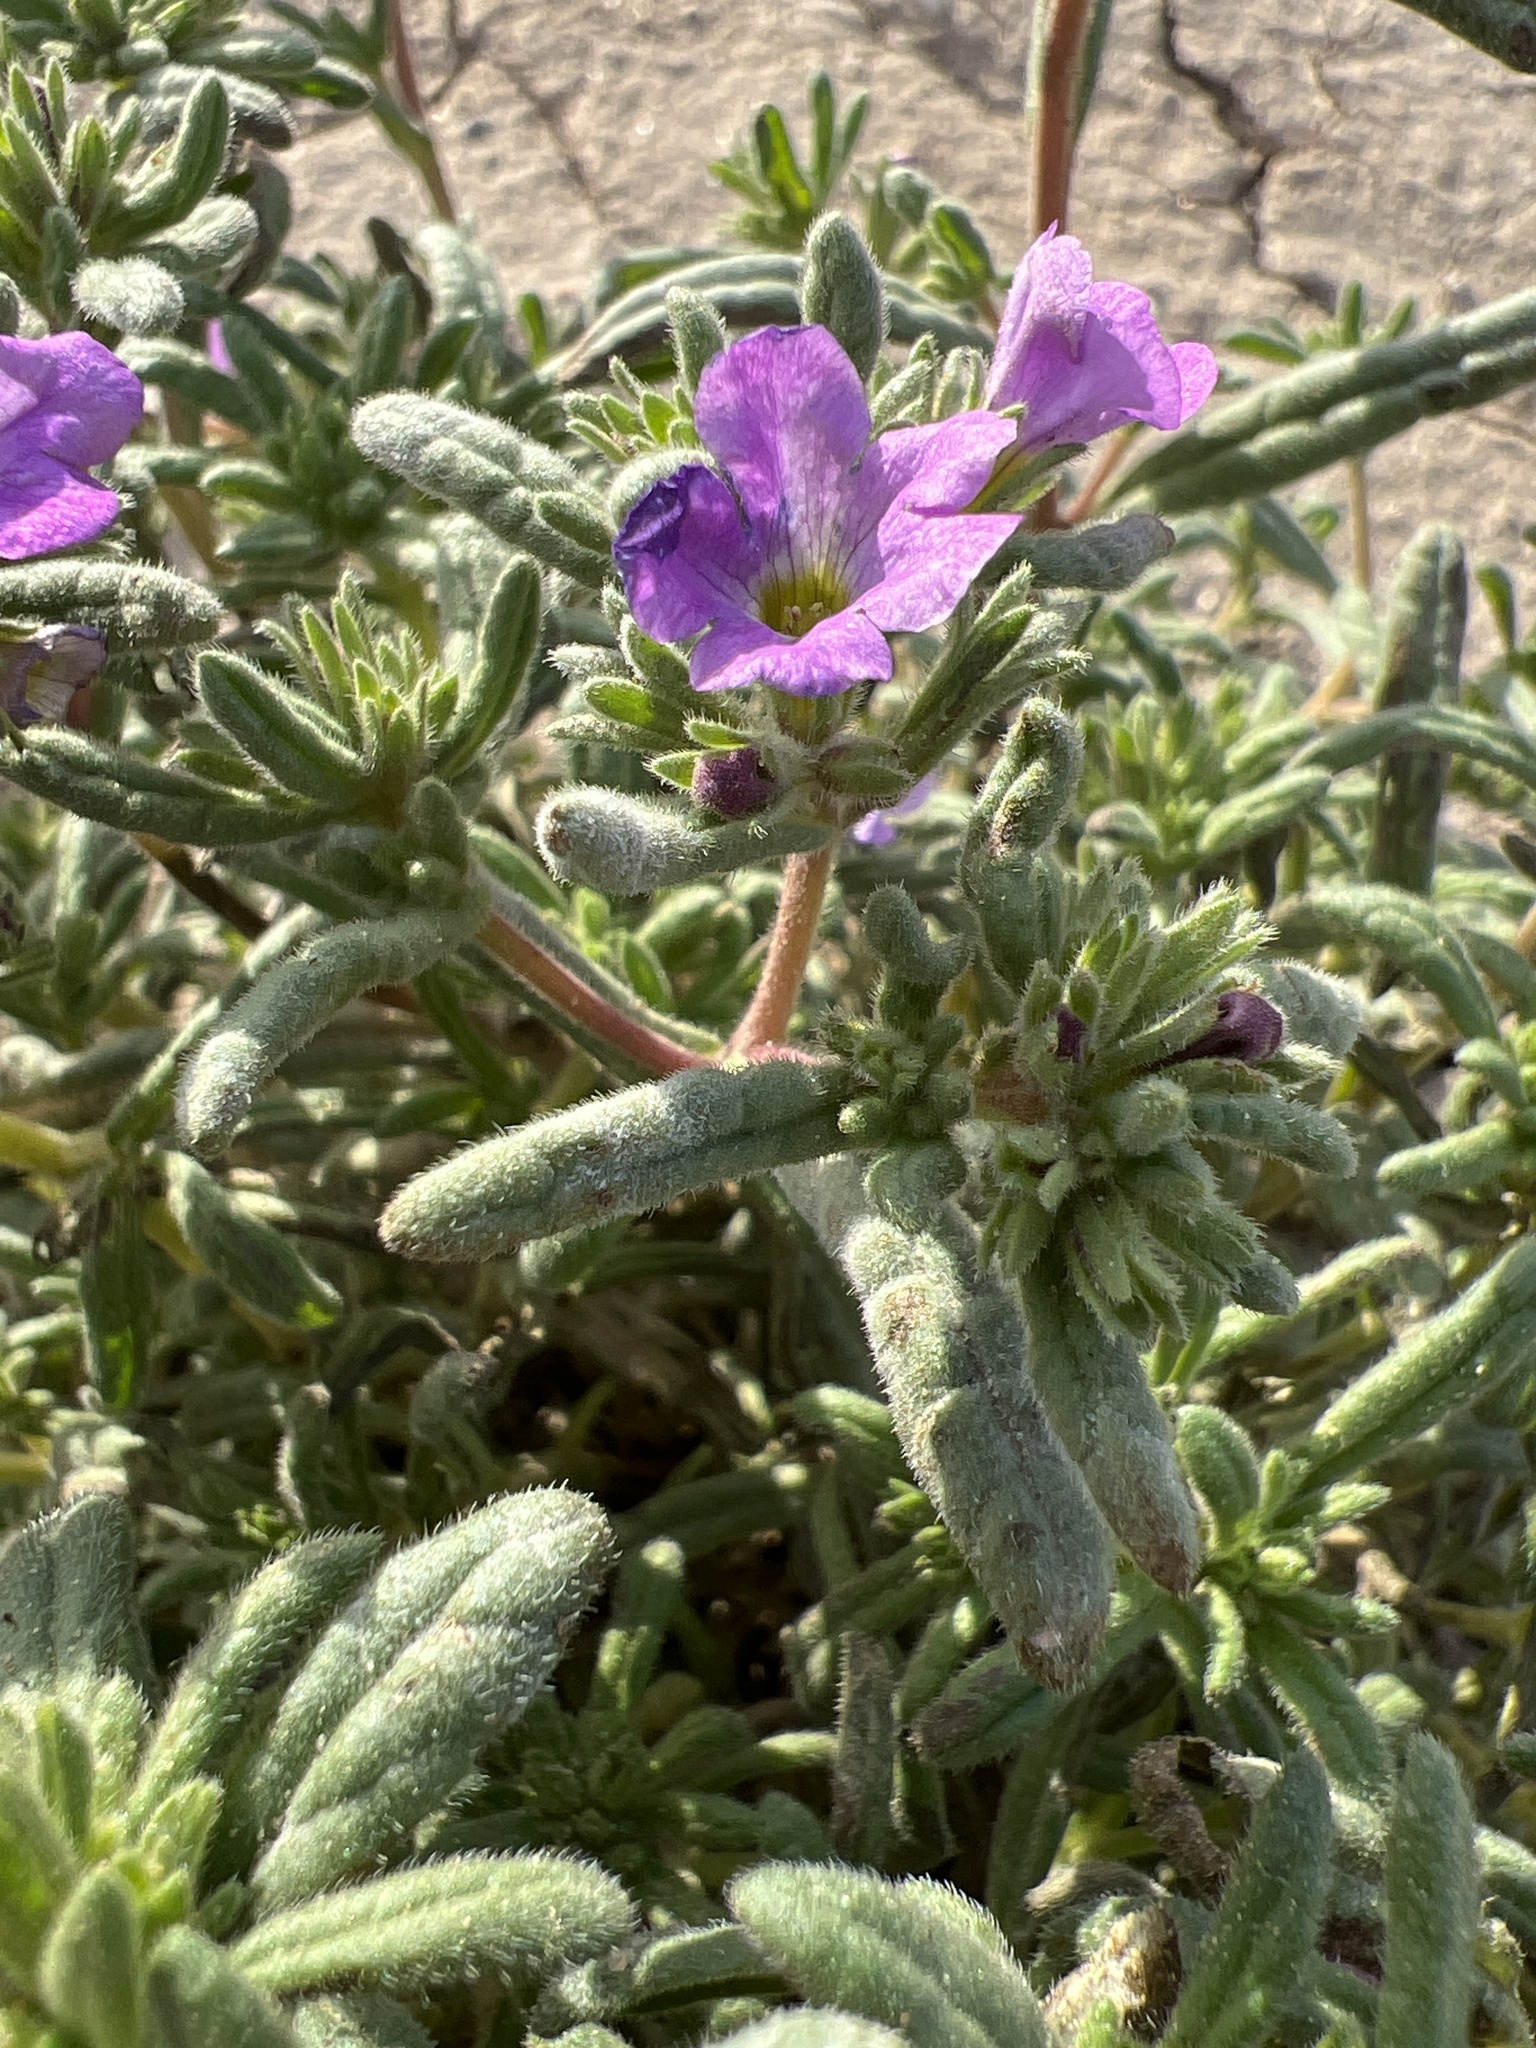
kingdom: Plantae
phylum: Tracheophyta
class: Magnoliopsida
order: Boraginales
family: Namaceae
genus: Nama
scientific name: Nama hispida
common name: Bristly nama
